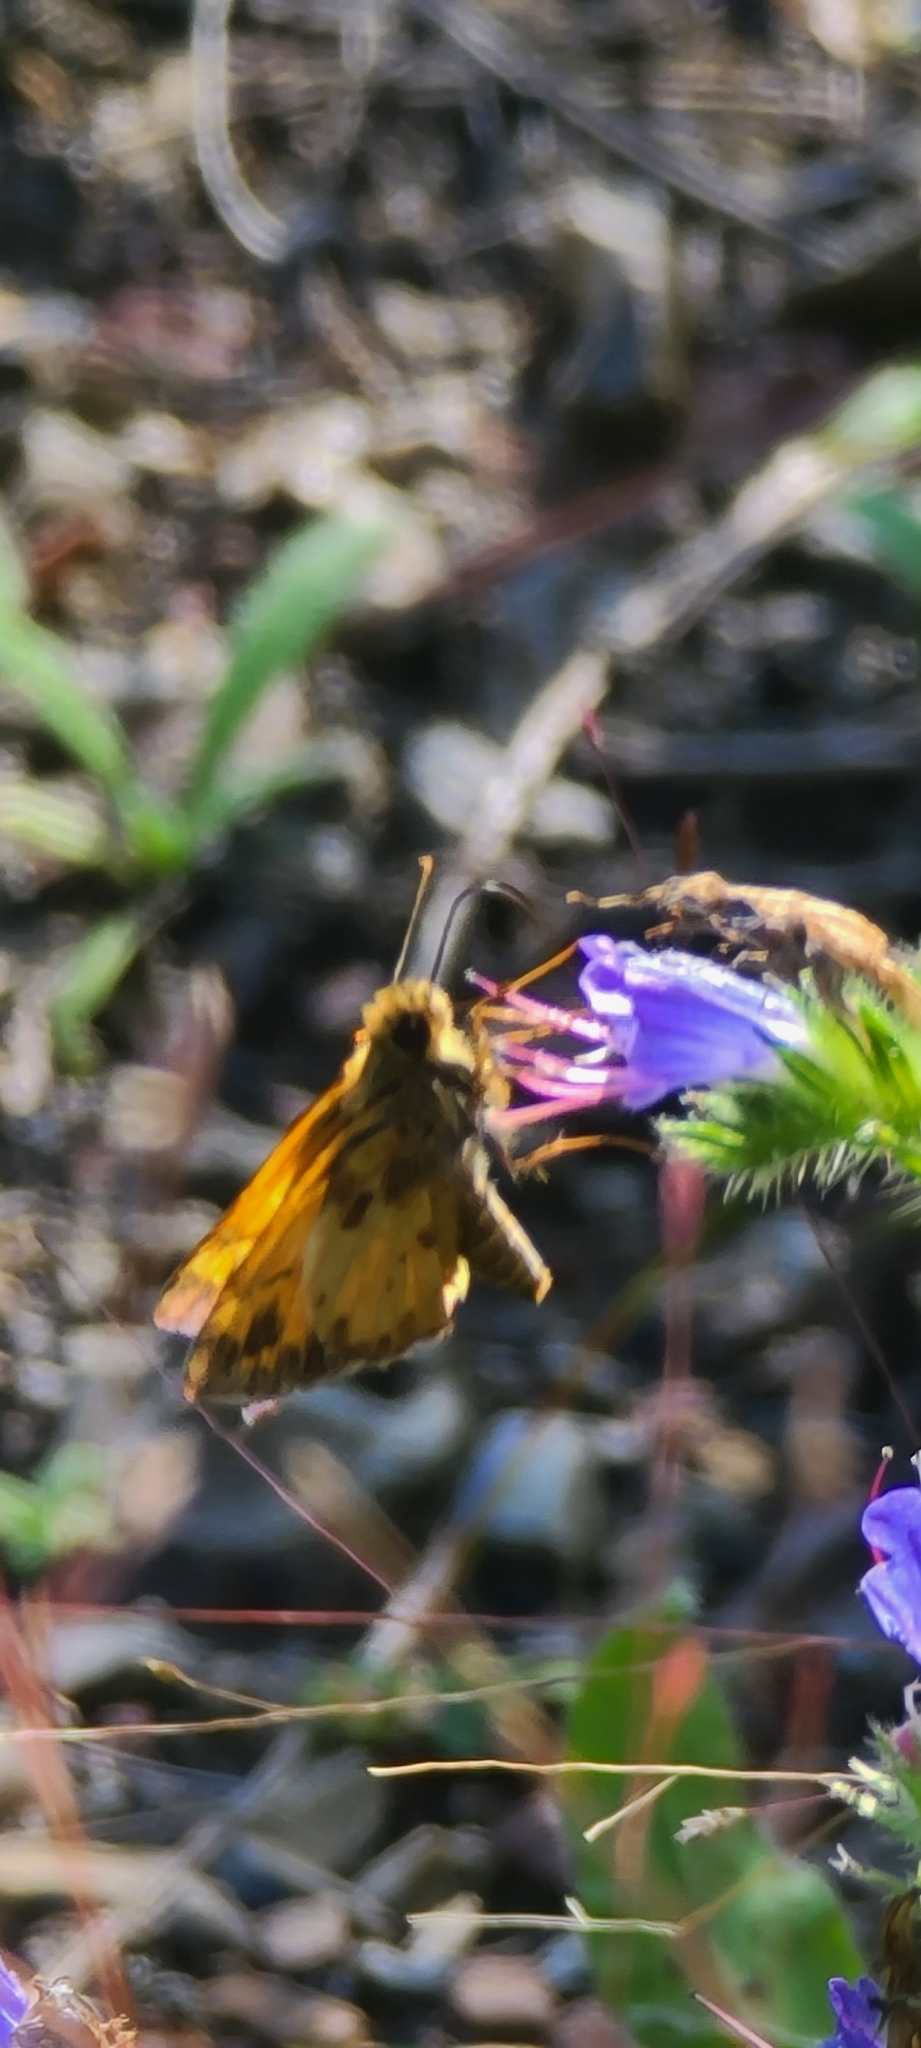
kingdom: Animalia
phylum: Arthropoda
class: Insecta
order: Lepidoptera
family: Hesperiidae
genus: Lon
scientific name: Lon zabulon
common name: Zabulon skipper
